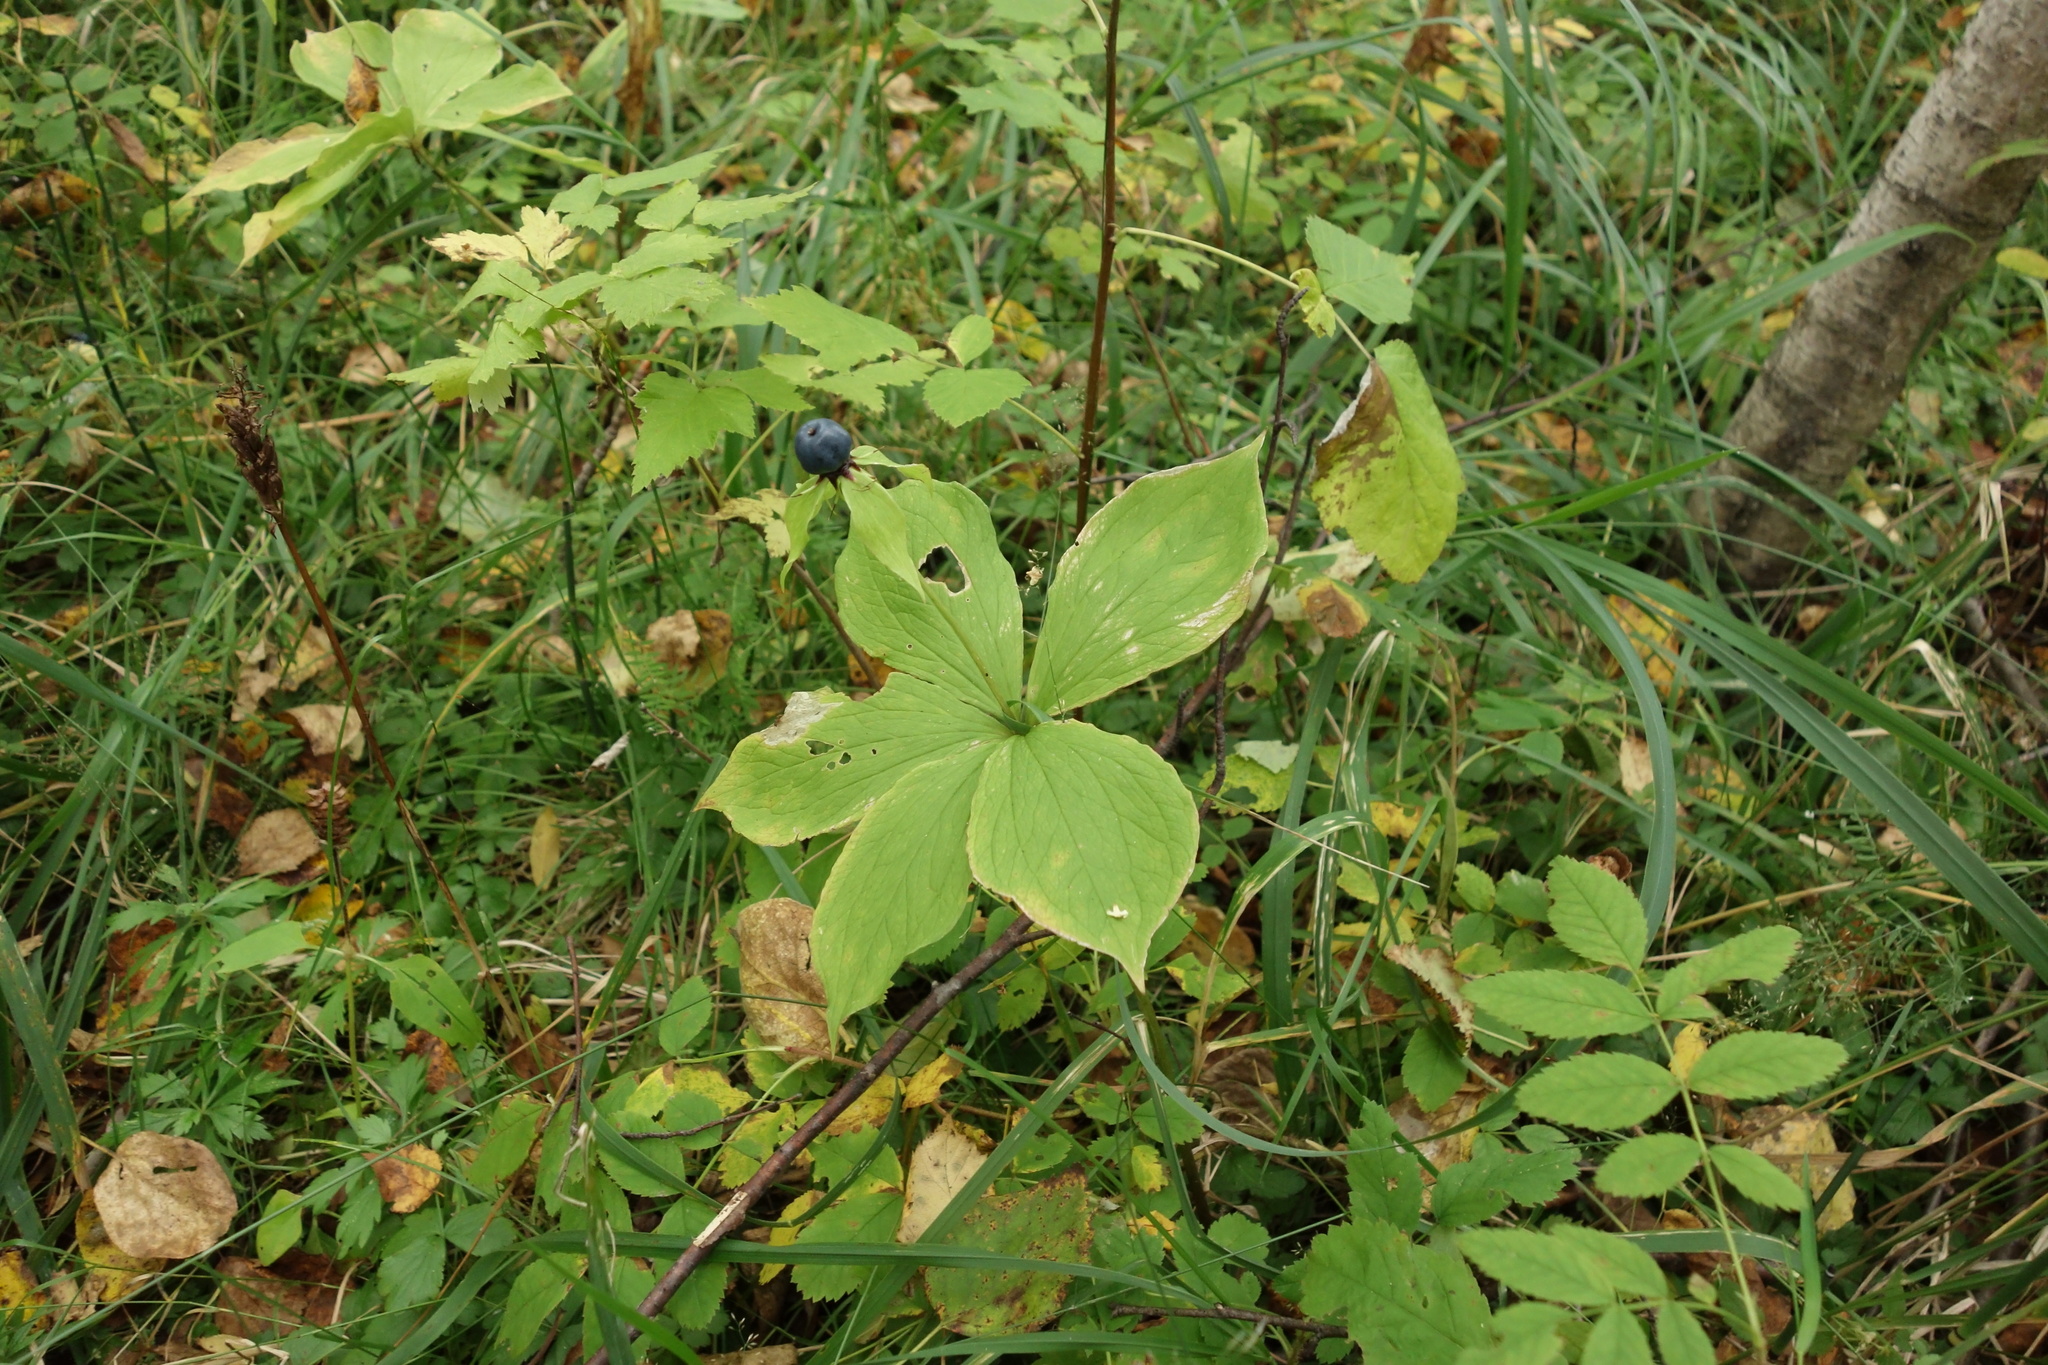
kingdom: Plantae
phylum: Tracheophyta
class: Liliopsida
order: Liliales
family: Melanthiaceae
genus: Paris
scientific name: Paris verticillata
